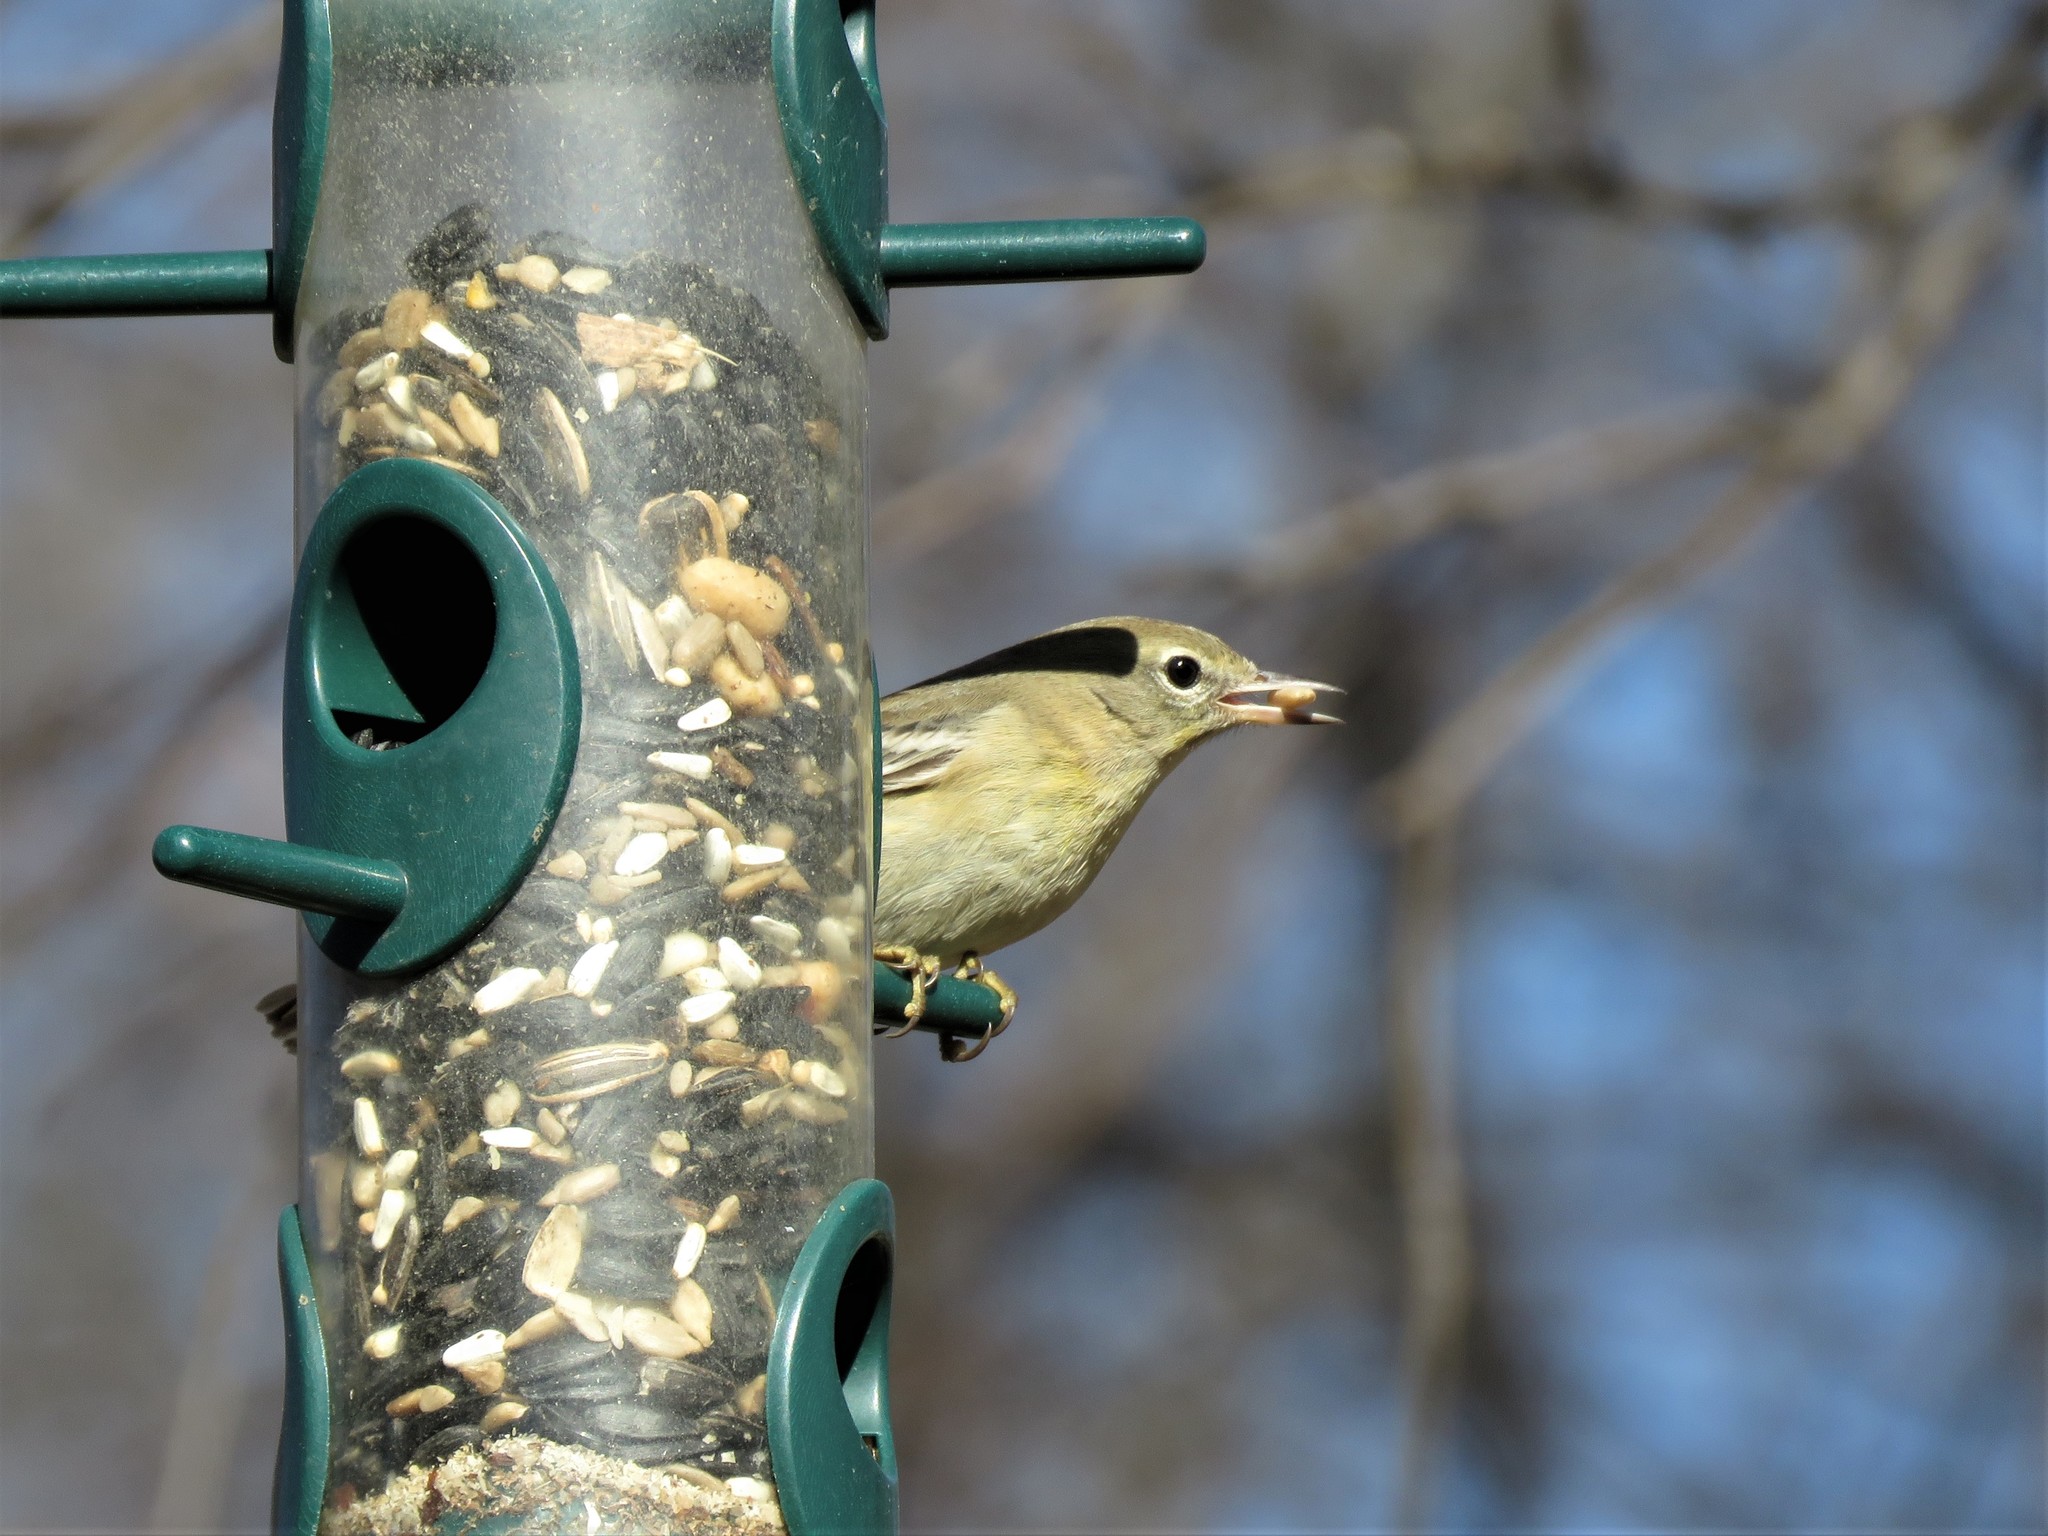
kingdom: Animalia
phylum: Chordata
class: Aves
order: Passeriformes
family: Parulidae
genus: Setophaga
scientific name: Setophaga pinus
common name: Pine warbler
